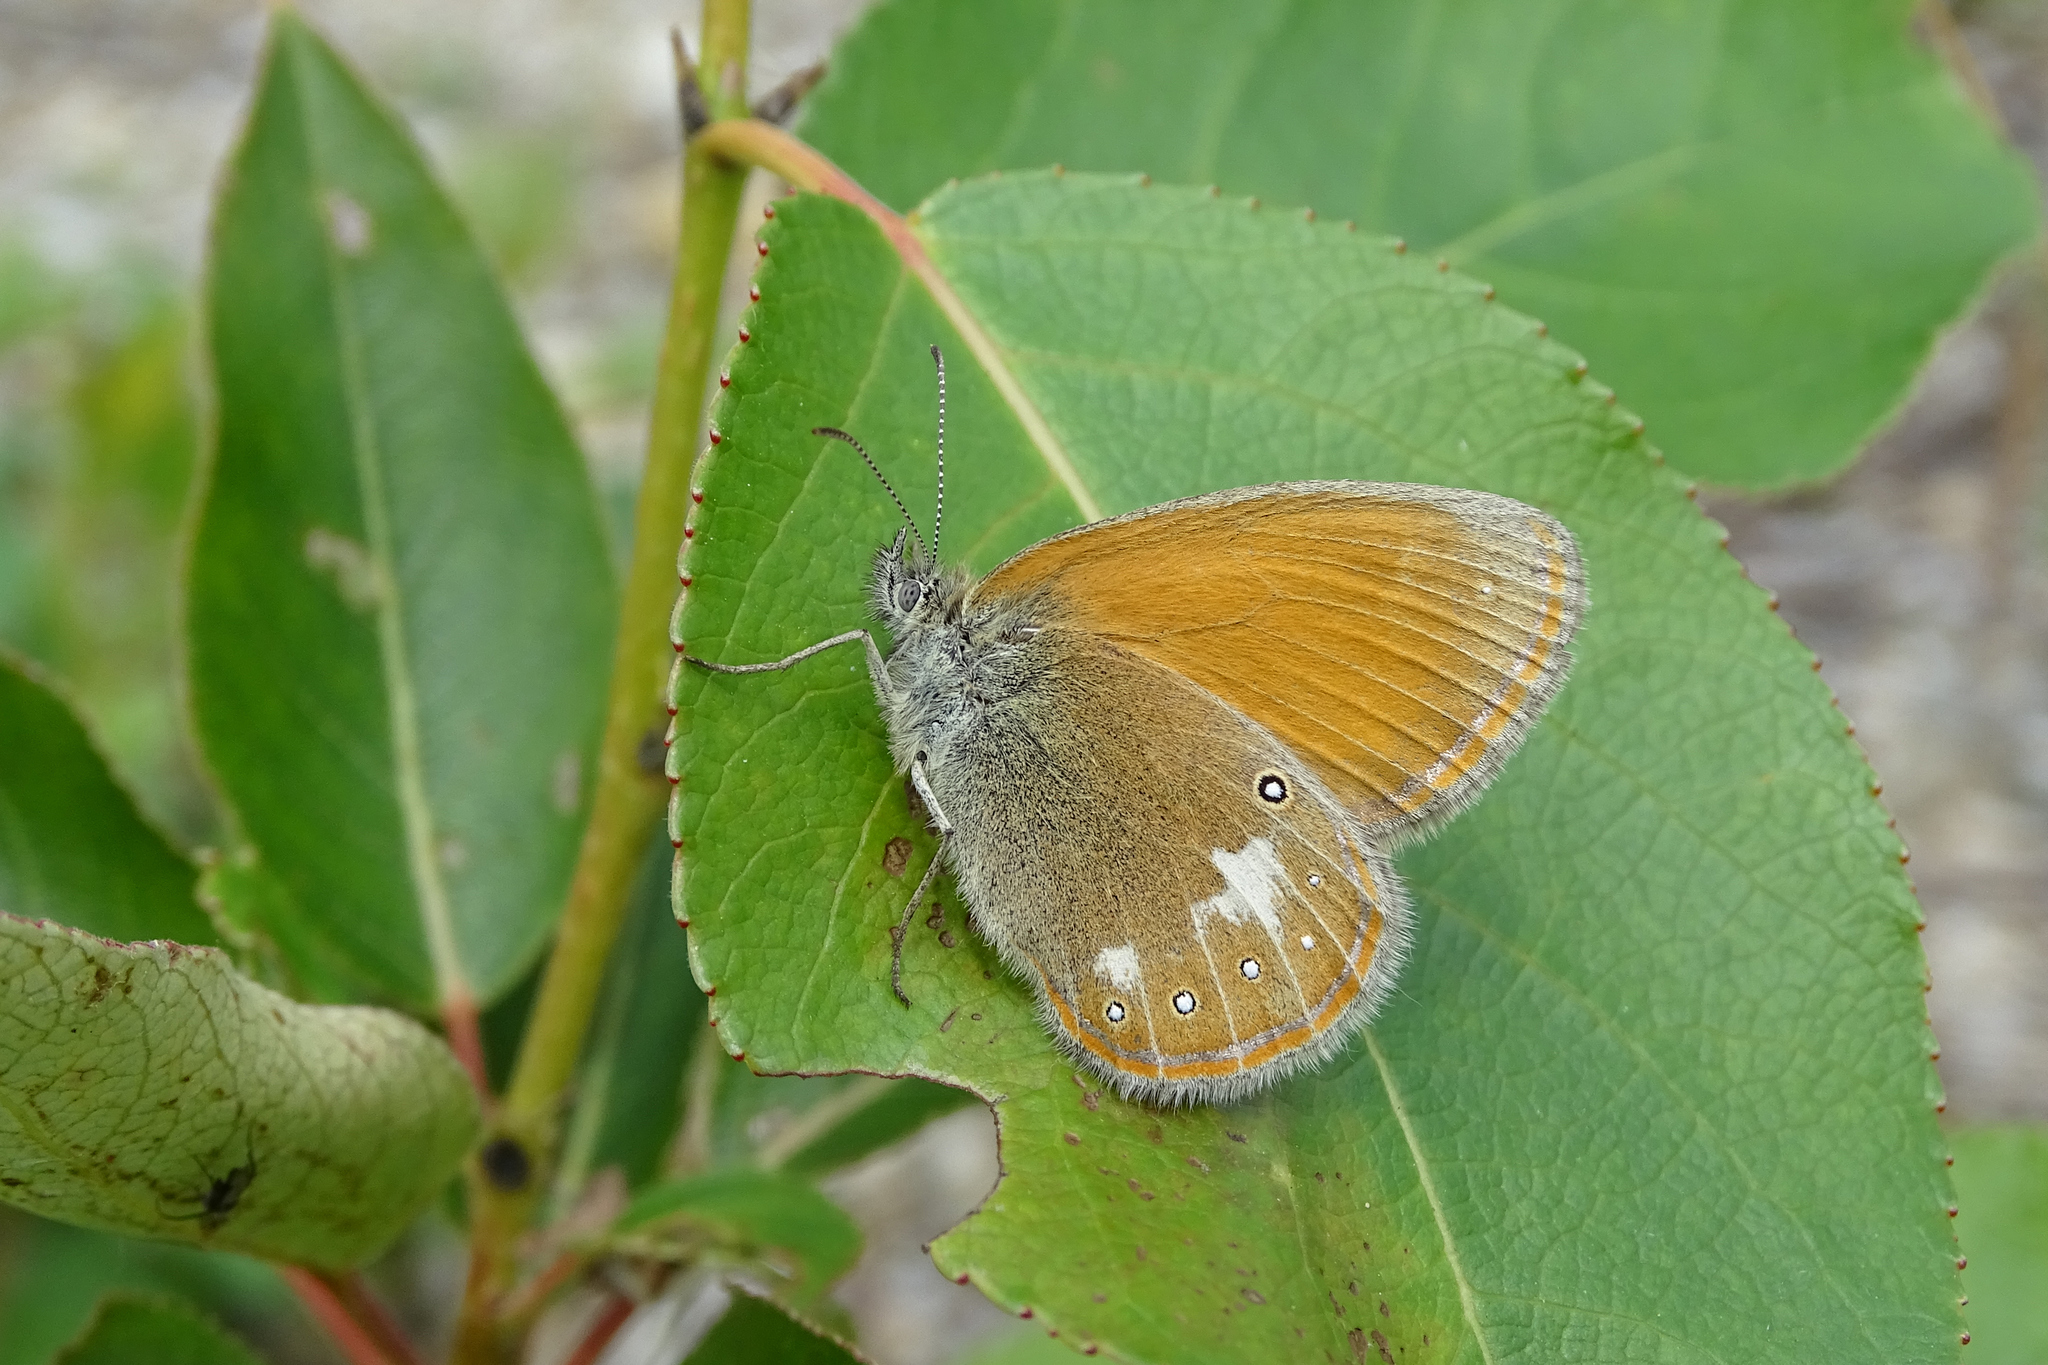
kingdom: Animalia
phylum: Arthropoda
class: Insecta
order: Lepidoptera
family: Nymphalidae
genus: Coenonympha
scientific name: Coenonympha iphis
